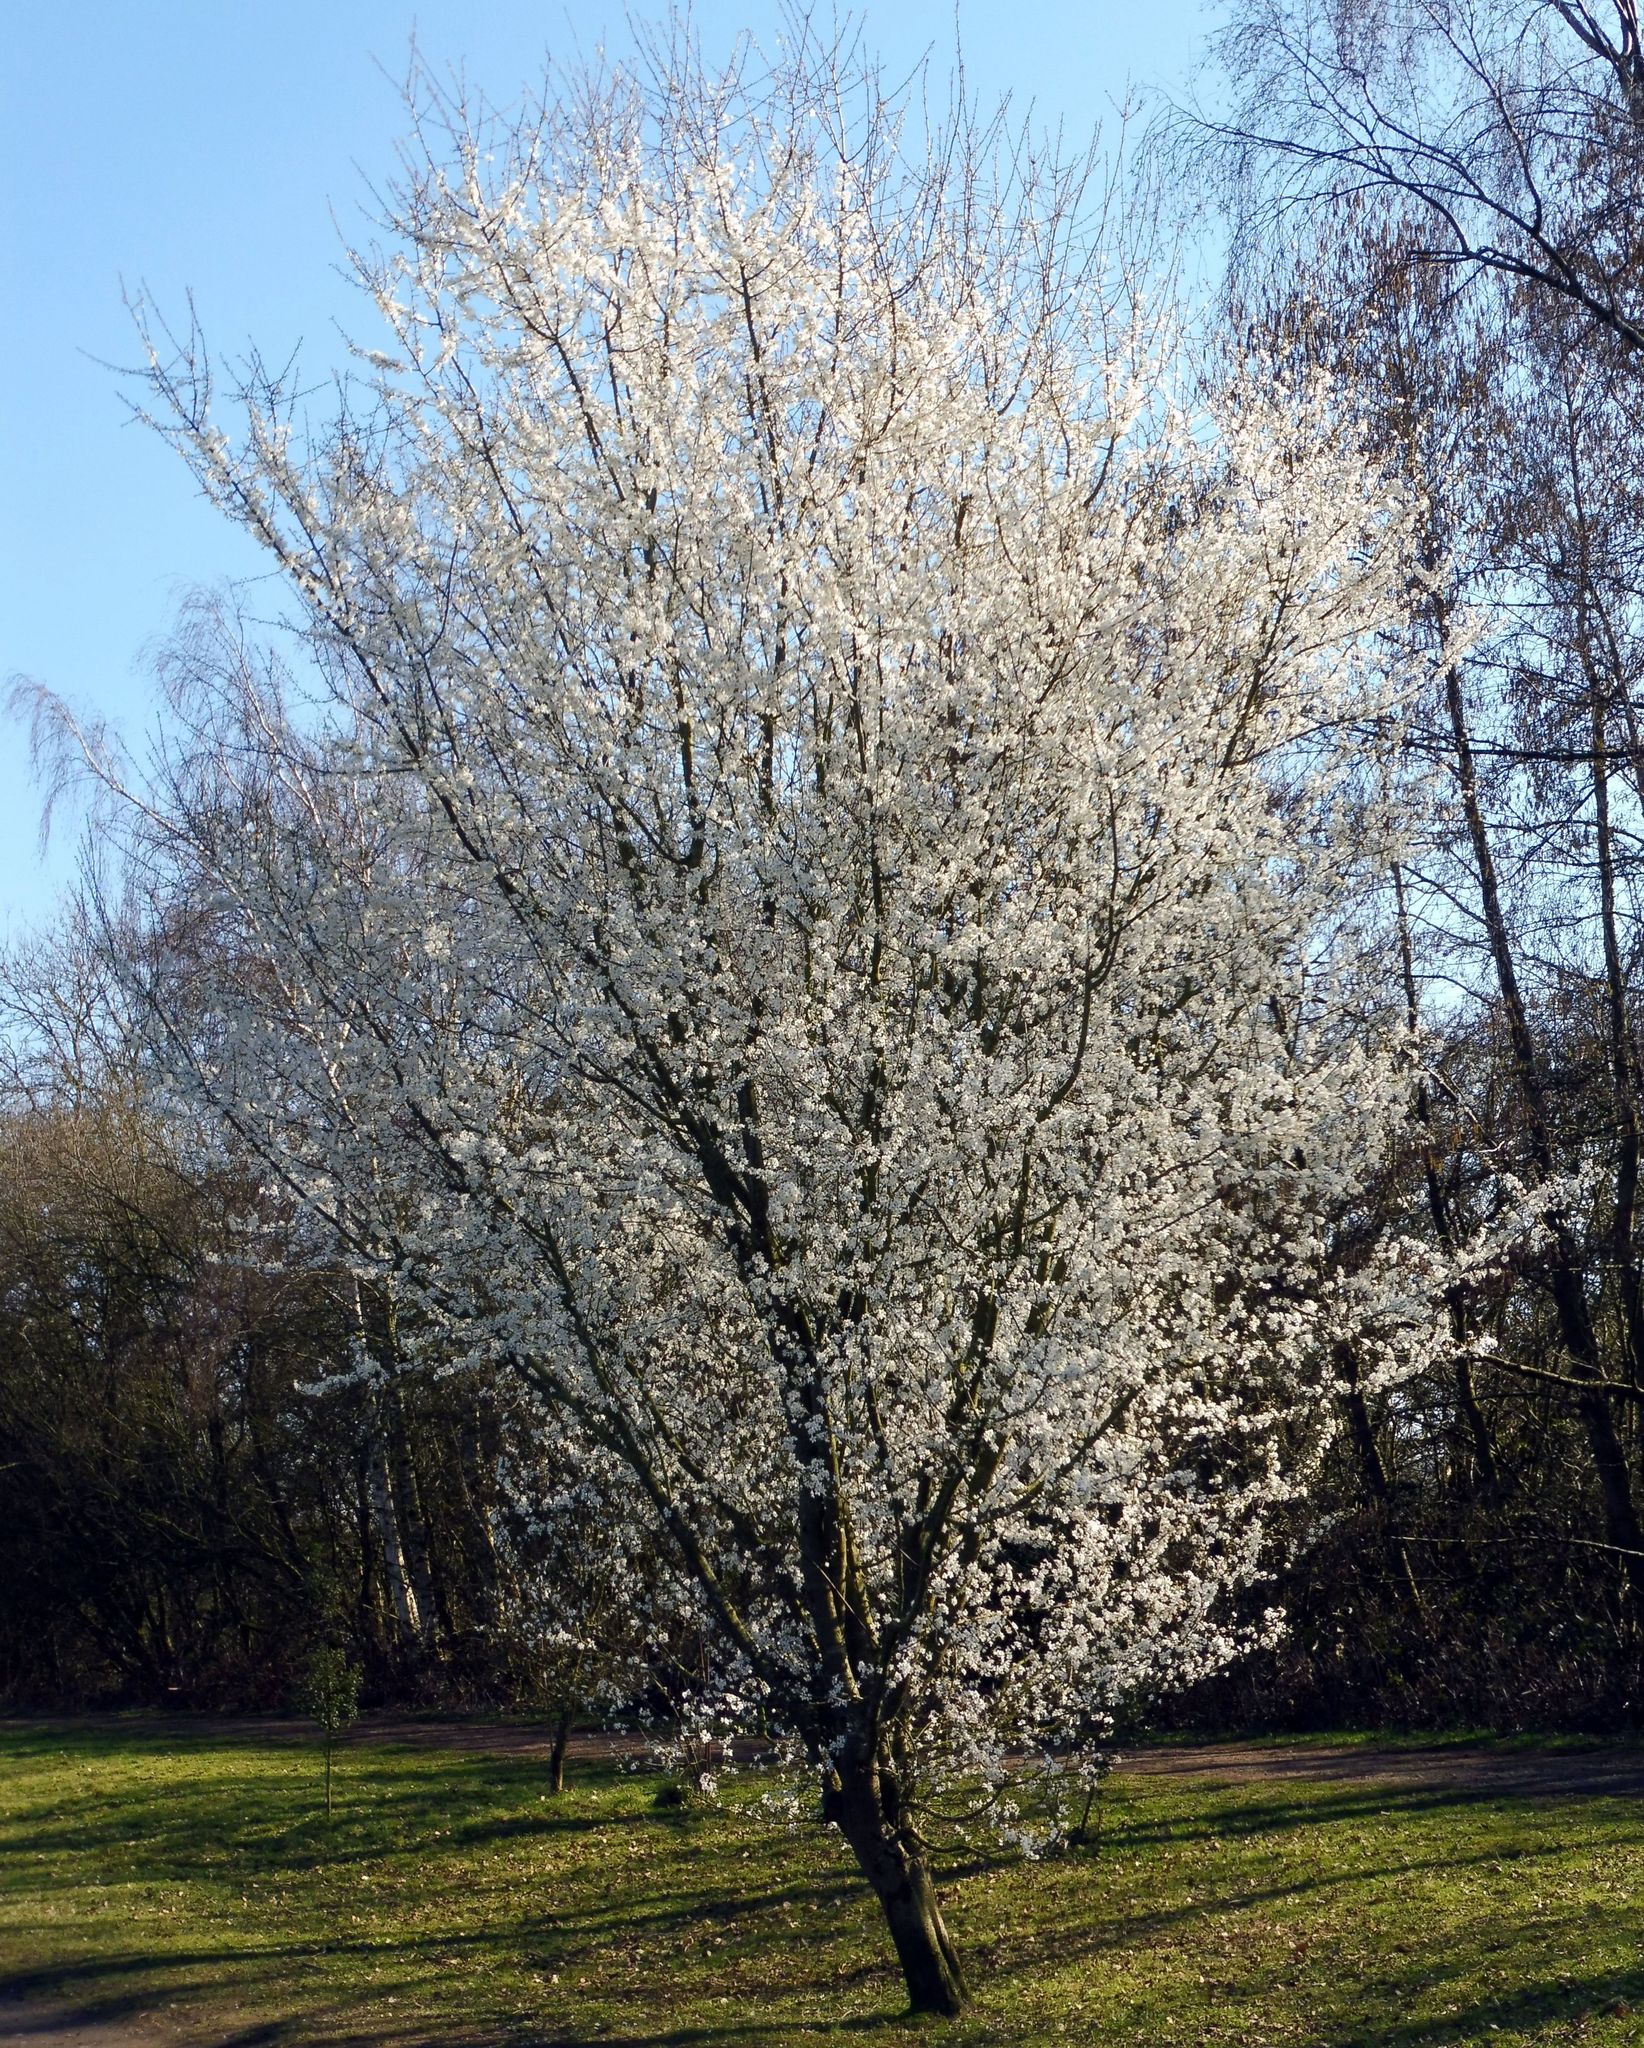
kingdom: Plantae
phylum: Tracheophyta
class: Magnoliopsida
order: Rosales
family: Rosaceae
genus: Prunus
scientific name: Prunus cerasifera
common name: Cherry plum
